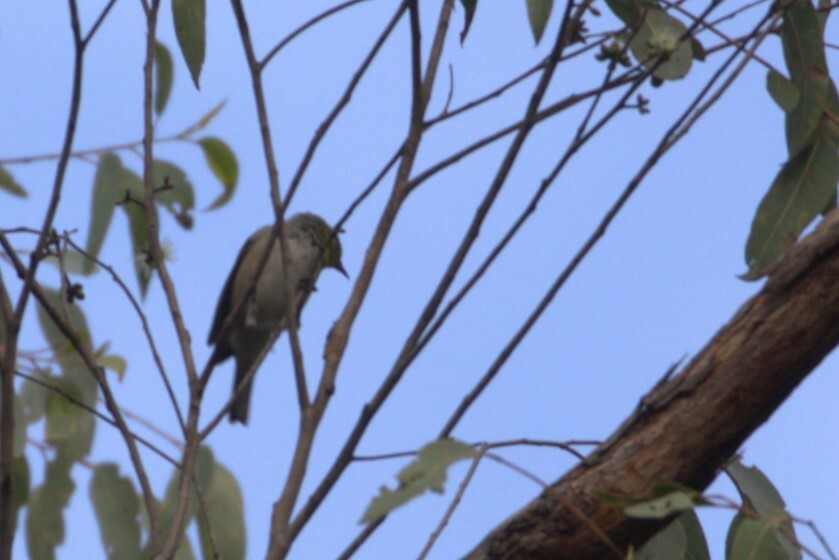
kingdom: Animalia
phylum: Chordata
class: Aves
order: Passeriformes
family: Zosteropidae
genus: Zosterops
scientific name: Zosterops lateralis
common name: Silvereye
